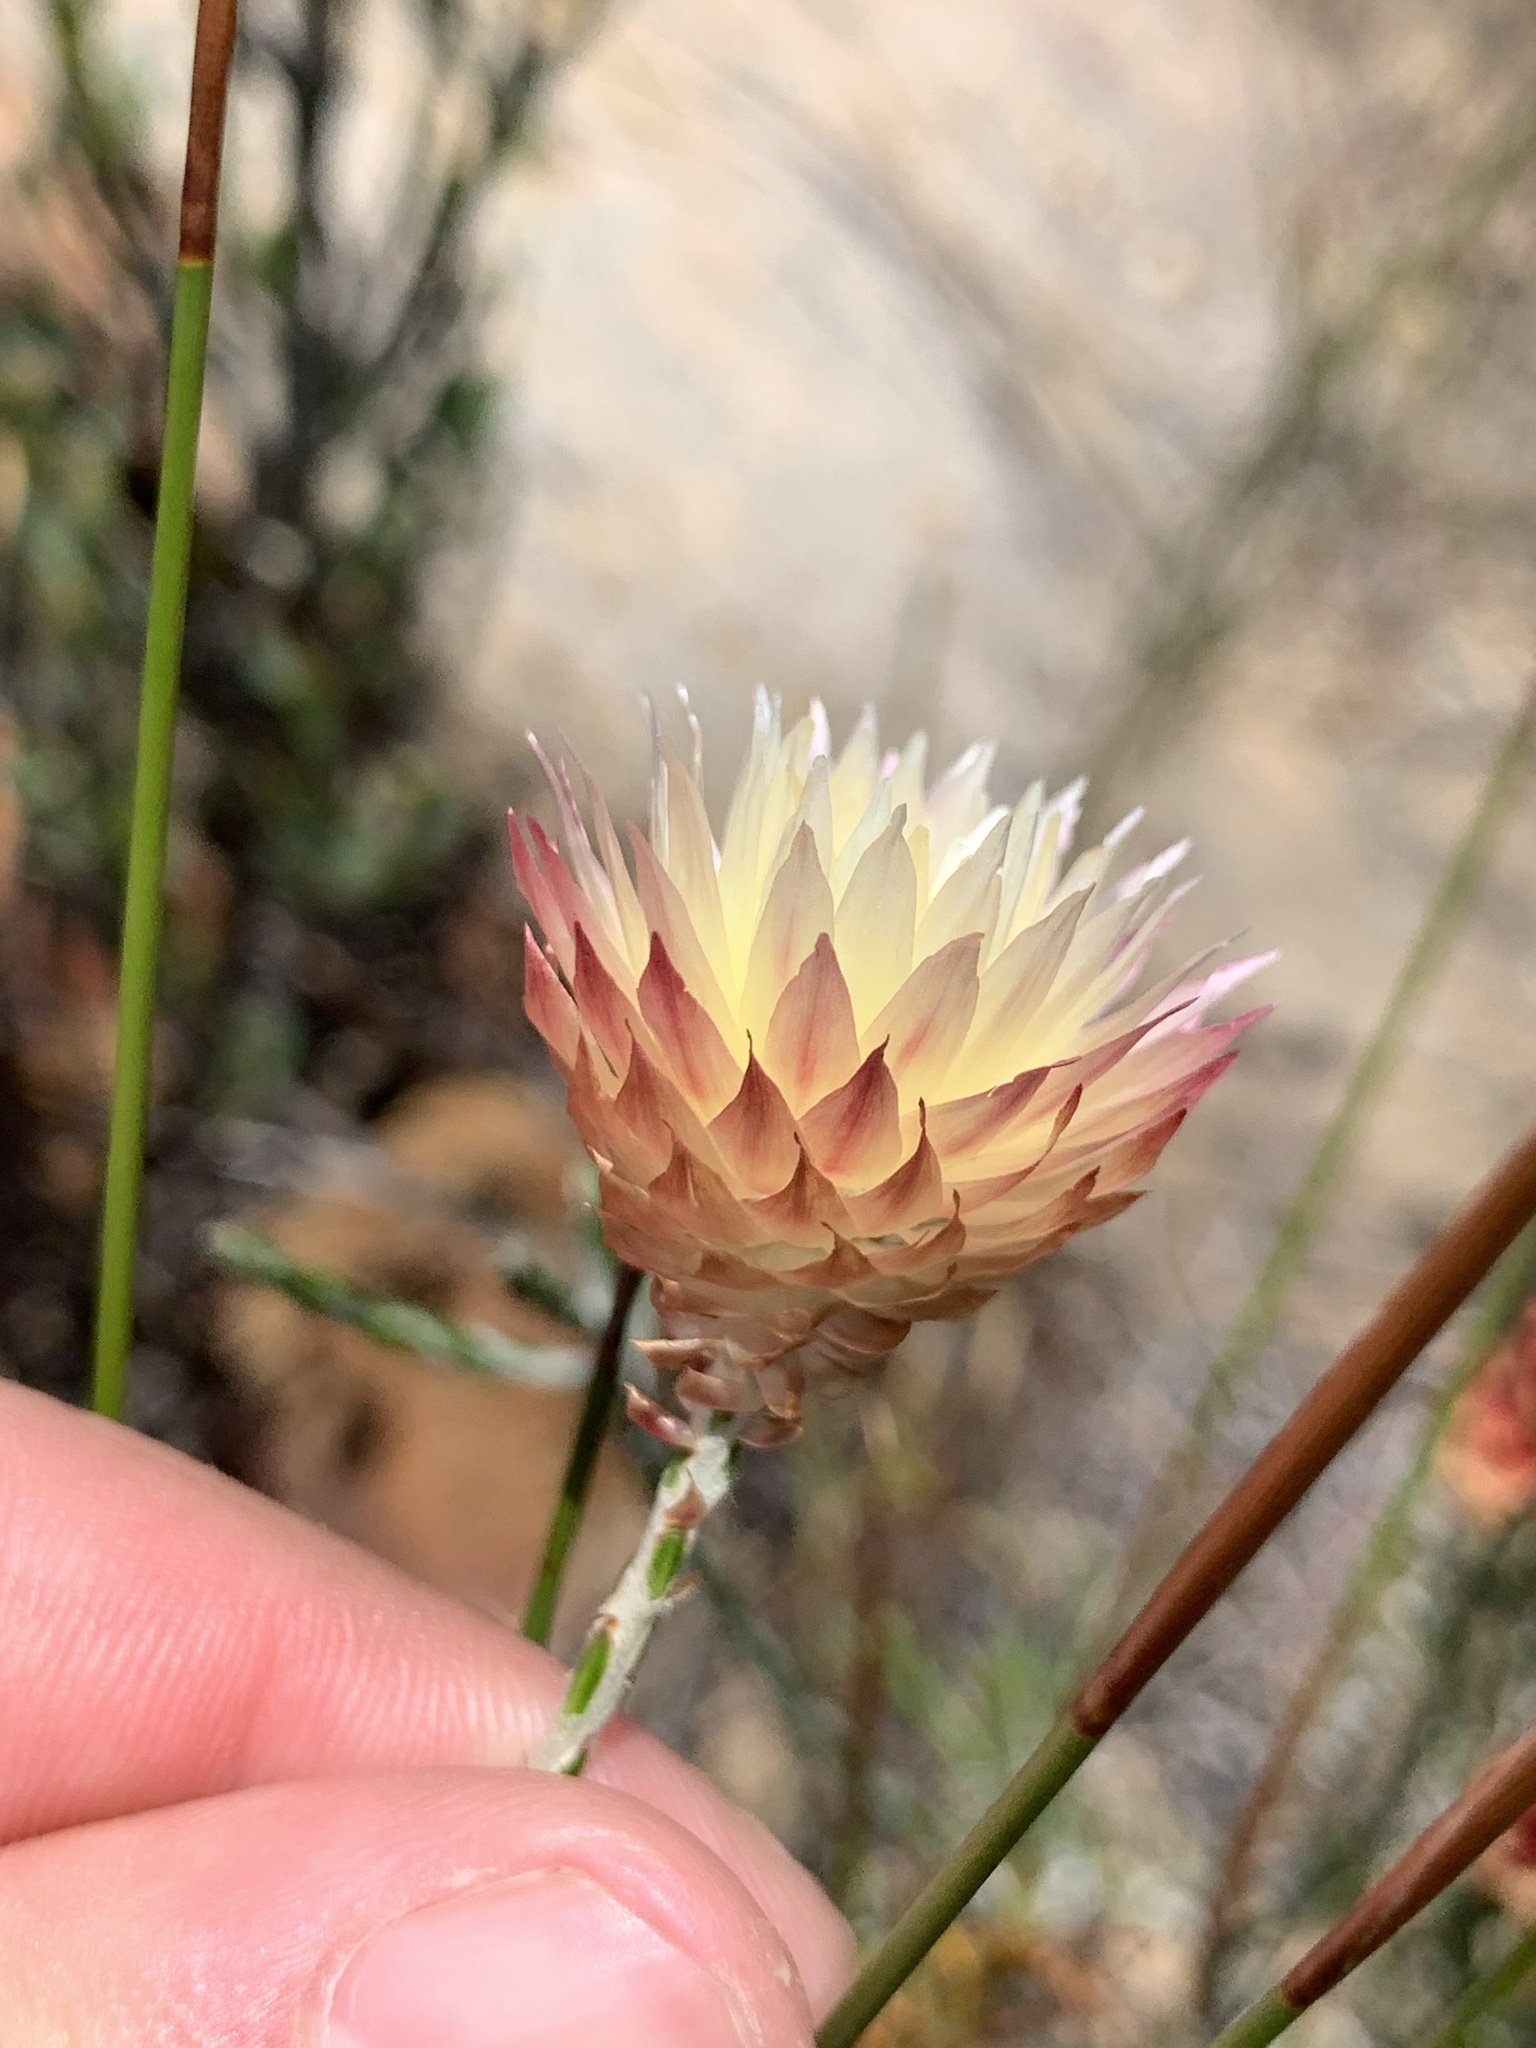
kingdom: Plantae
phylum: Tracheophyta
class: Magnoliopsida
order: Asterales
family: Asteraceae
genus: Edmondia
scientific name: Edmondia sesamoides
